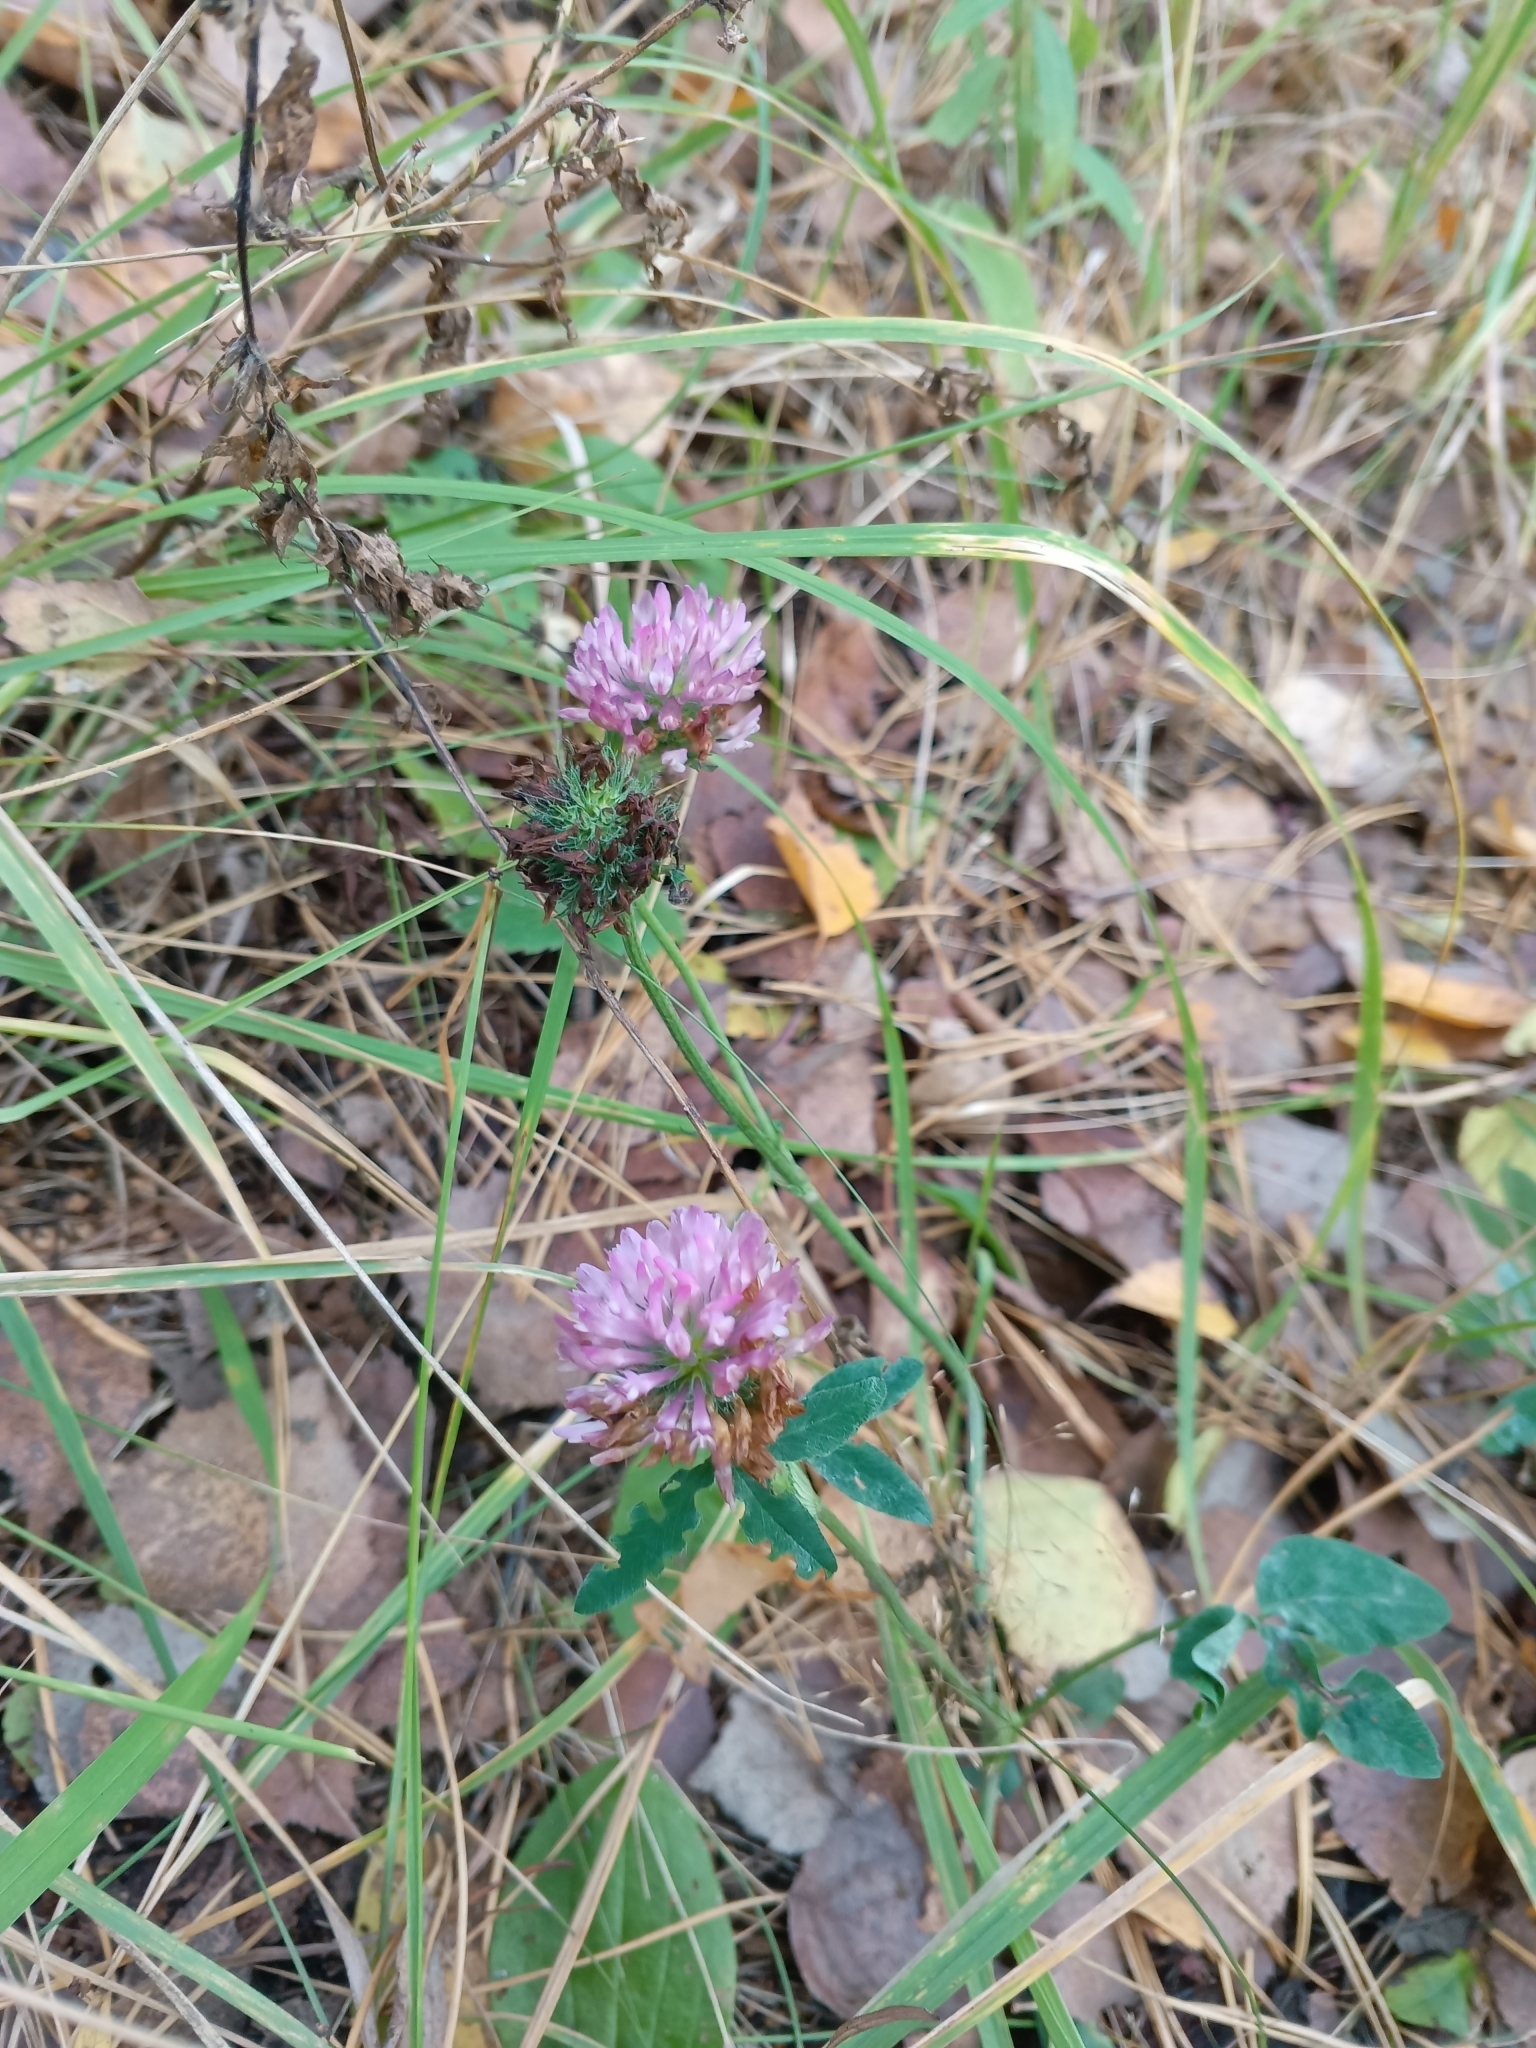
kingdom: Plantae
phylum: Tracheophyta
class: Magnoliopsida
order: Fabales
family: Fabaceae
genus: Trifolium
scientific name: Trifolium pratense
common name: Red clover
